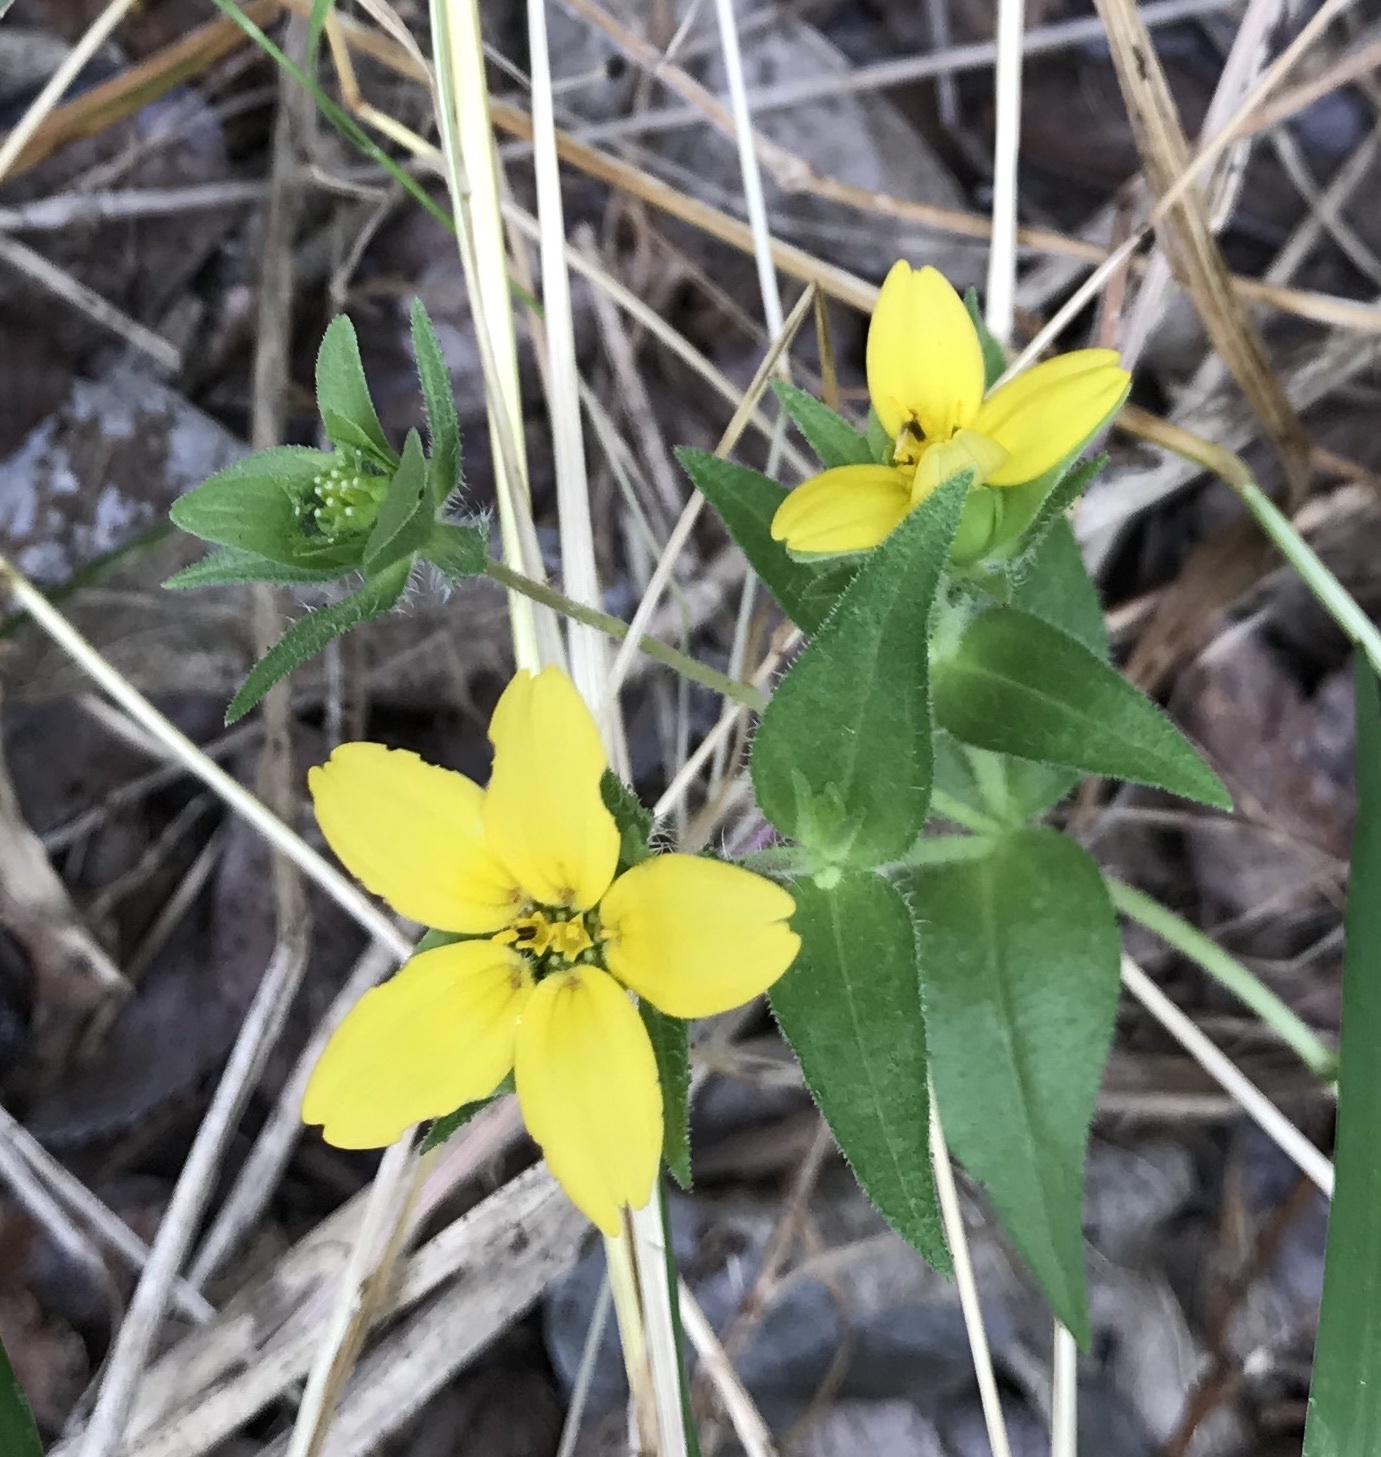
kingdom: Plantae
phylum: Tracheophyta
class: Magnoliopsida
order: Asterales
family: Asteraceae
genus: Lindheimera
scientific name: Lindheimera texana
